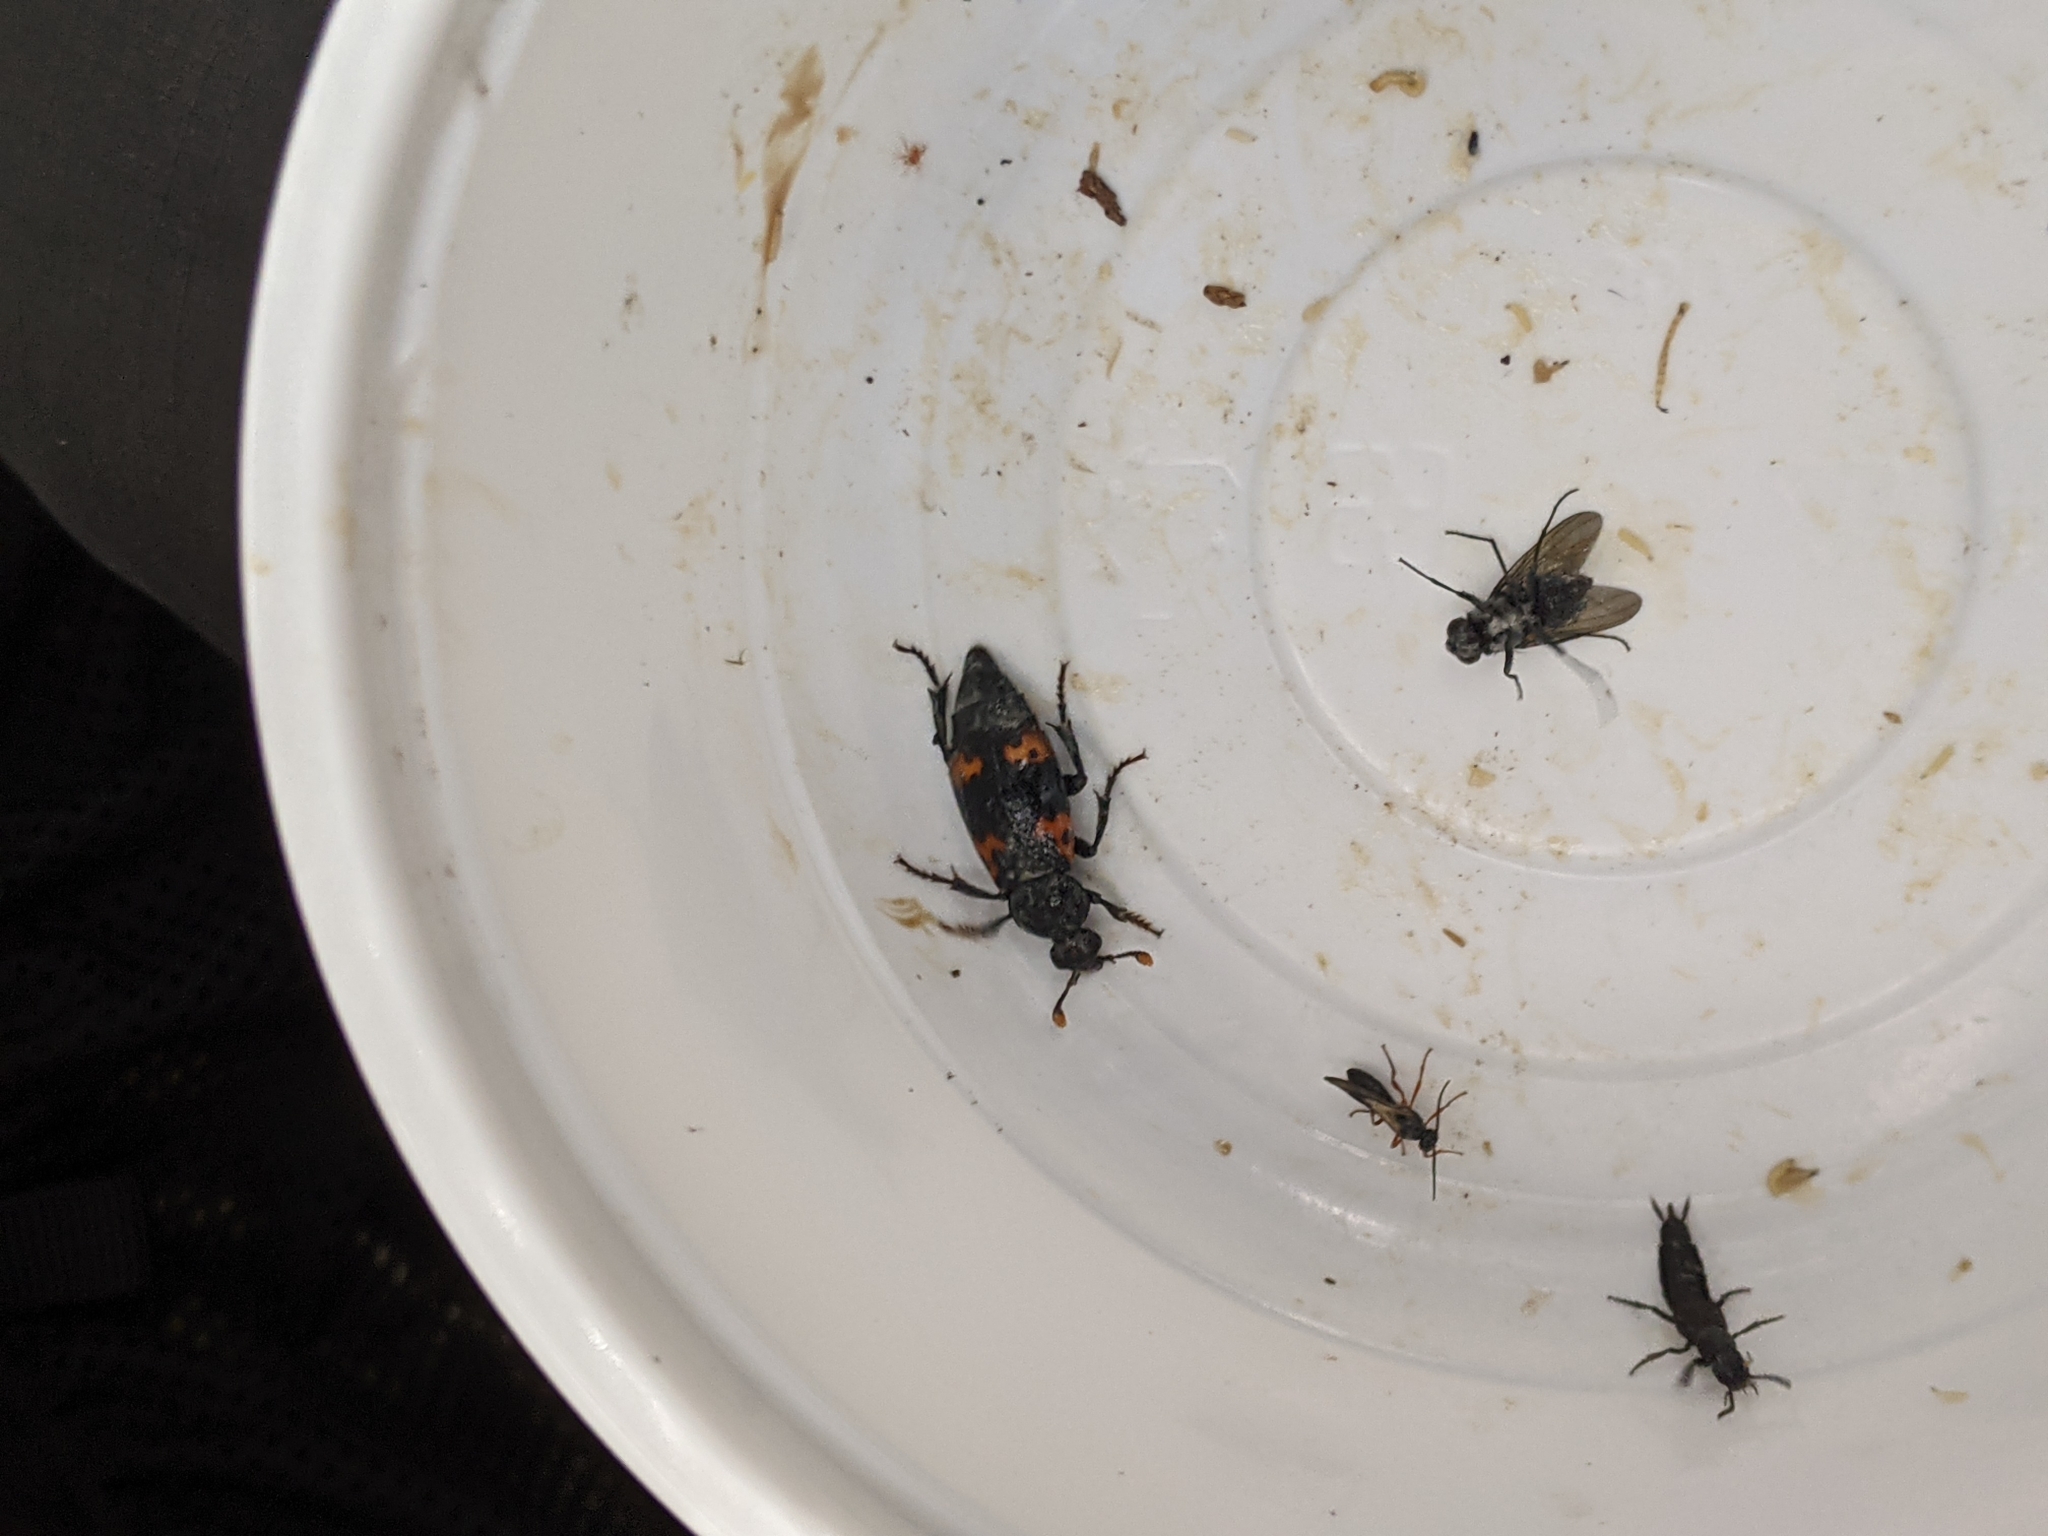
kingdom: Animalia
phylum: Arthropoda
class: Insecta
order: Coleoptera
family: Staphylinidae
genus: Nicrophorus
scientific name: Nicrophorus nepalensis
